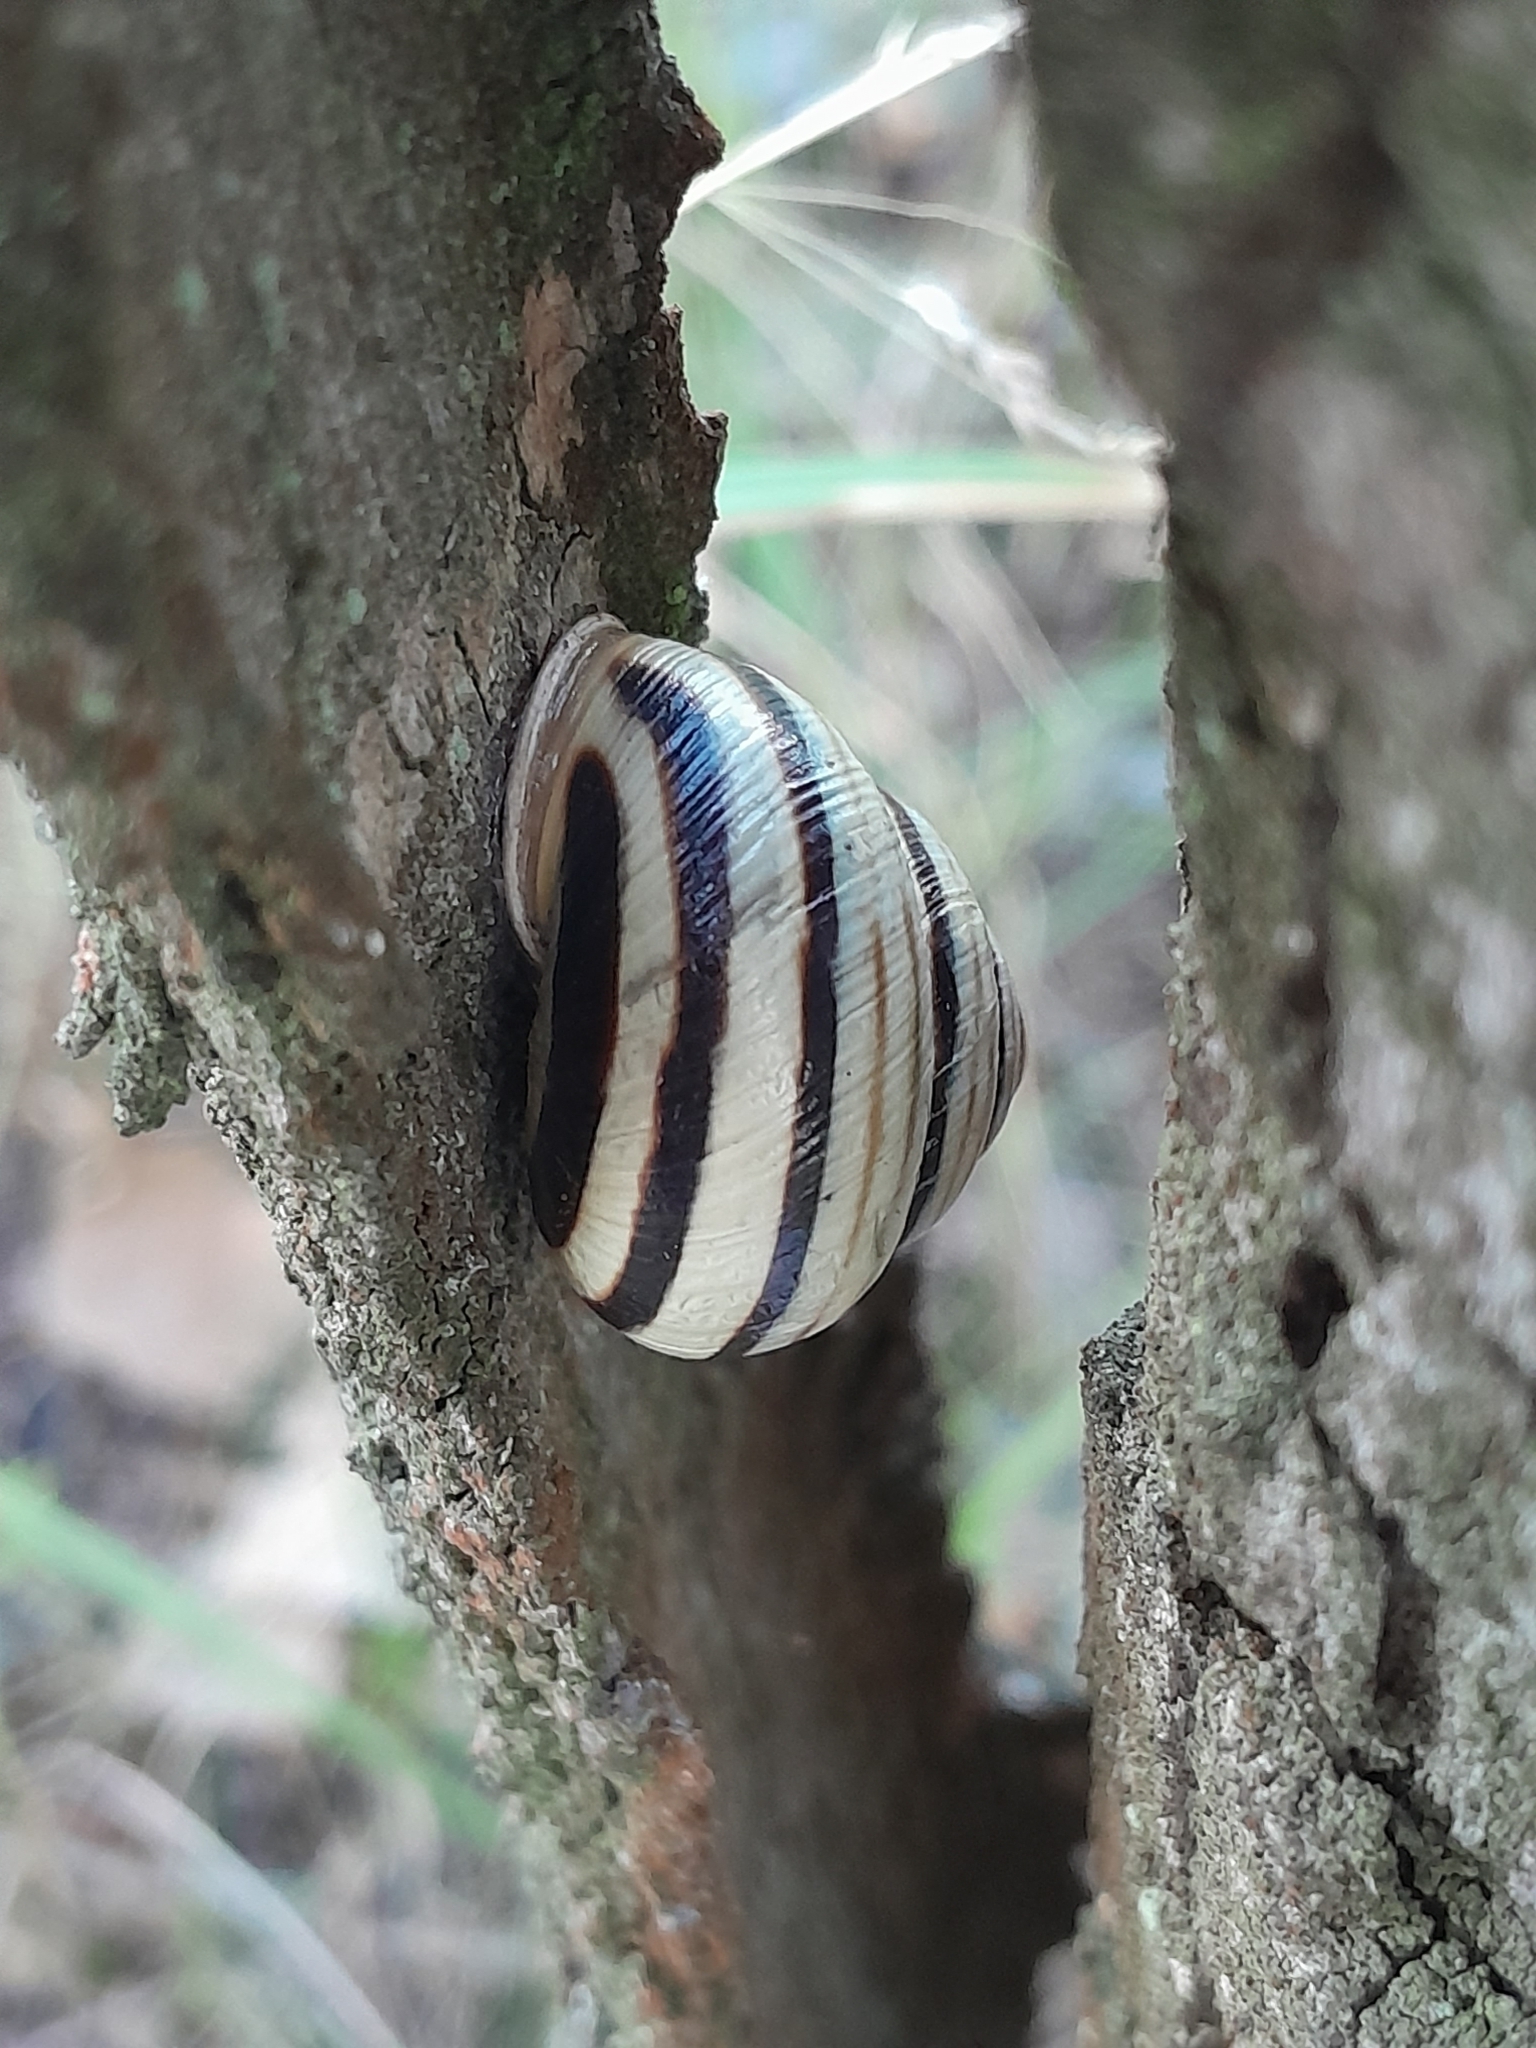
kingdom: Animalia
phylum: Mollusca
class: Gastropoda
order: Stylommatophora
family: Helicidae
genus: Caucasotachea
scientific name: Caucasotachea vindobonensis
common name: European helicid land snail
